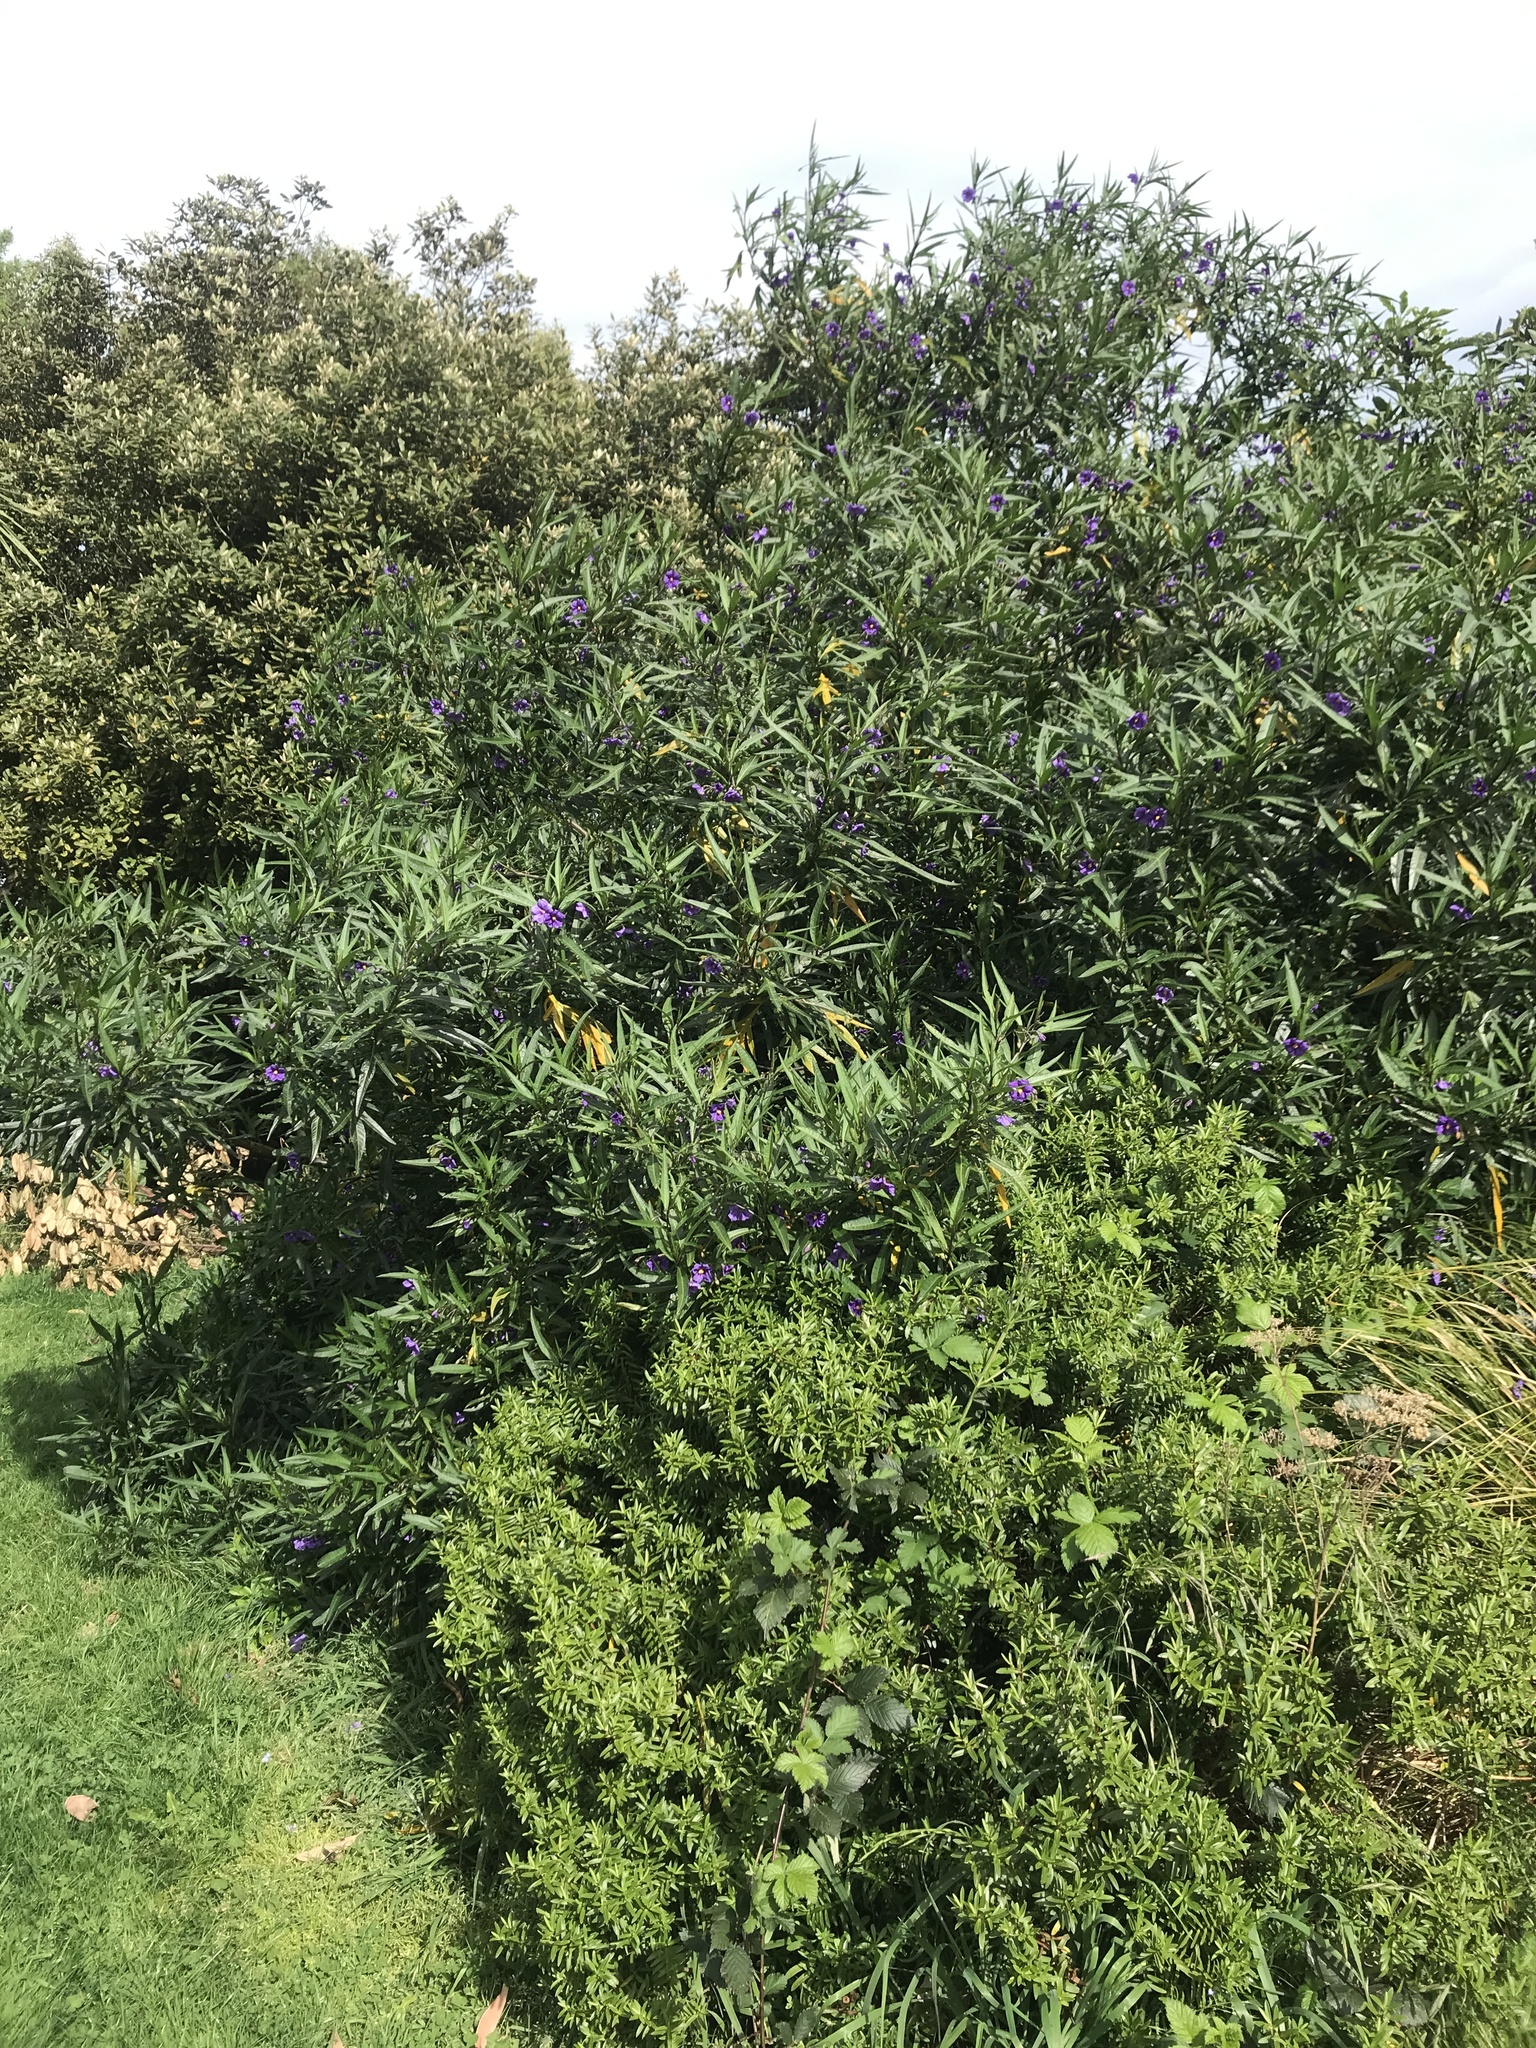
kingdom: Plantae
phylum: Tracheophyta
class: Magnoliopsida
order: Solanales
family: Solanaceae
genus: Solanum
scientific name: Solanum laciniatum
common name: Kangaroo-apple
